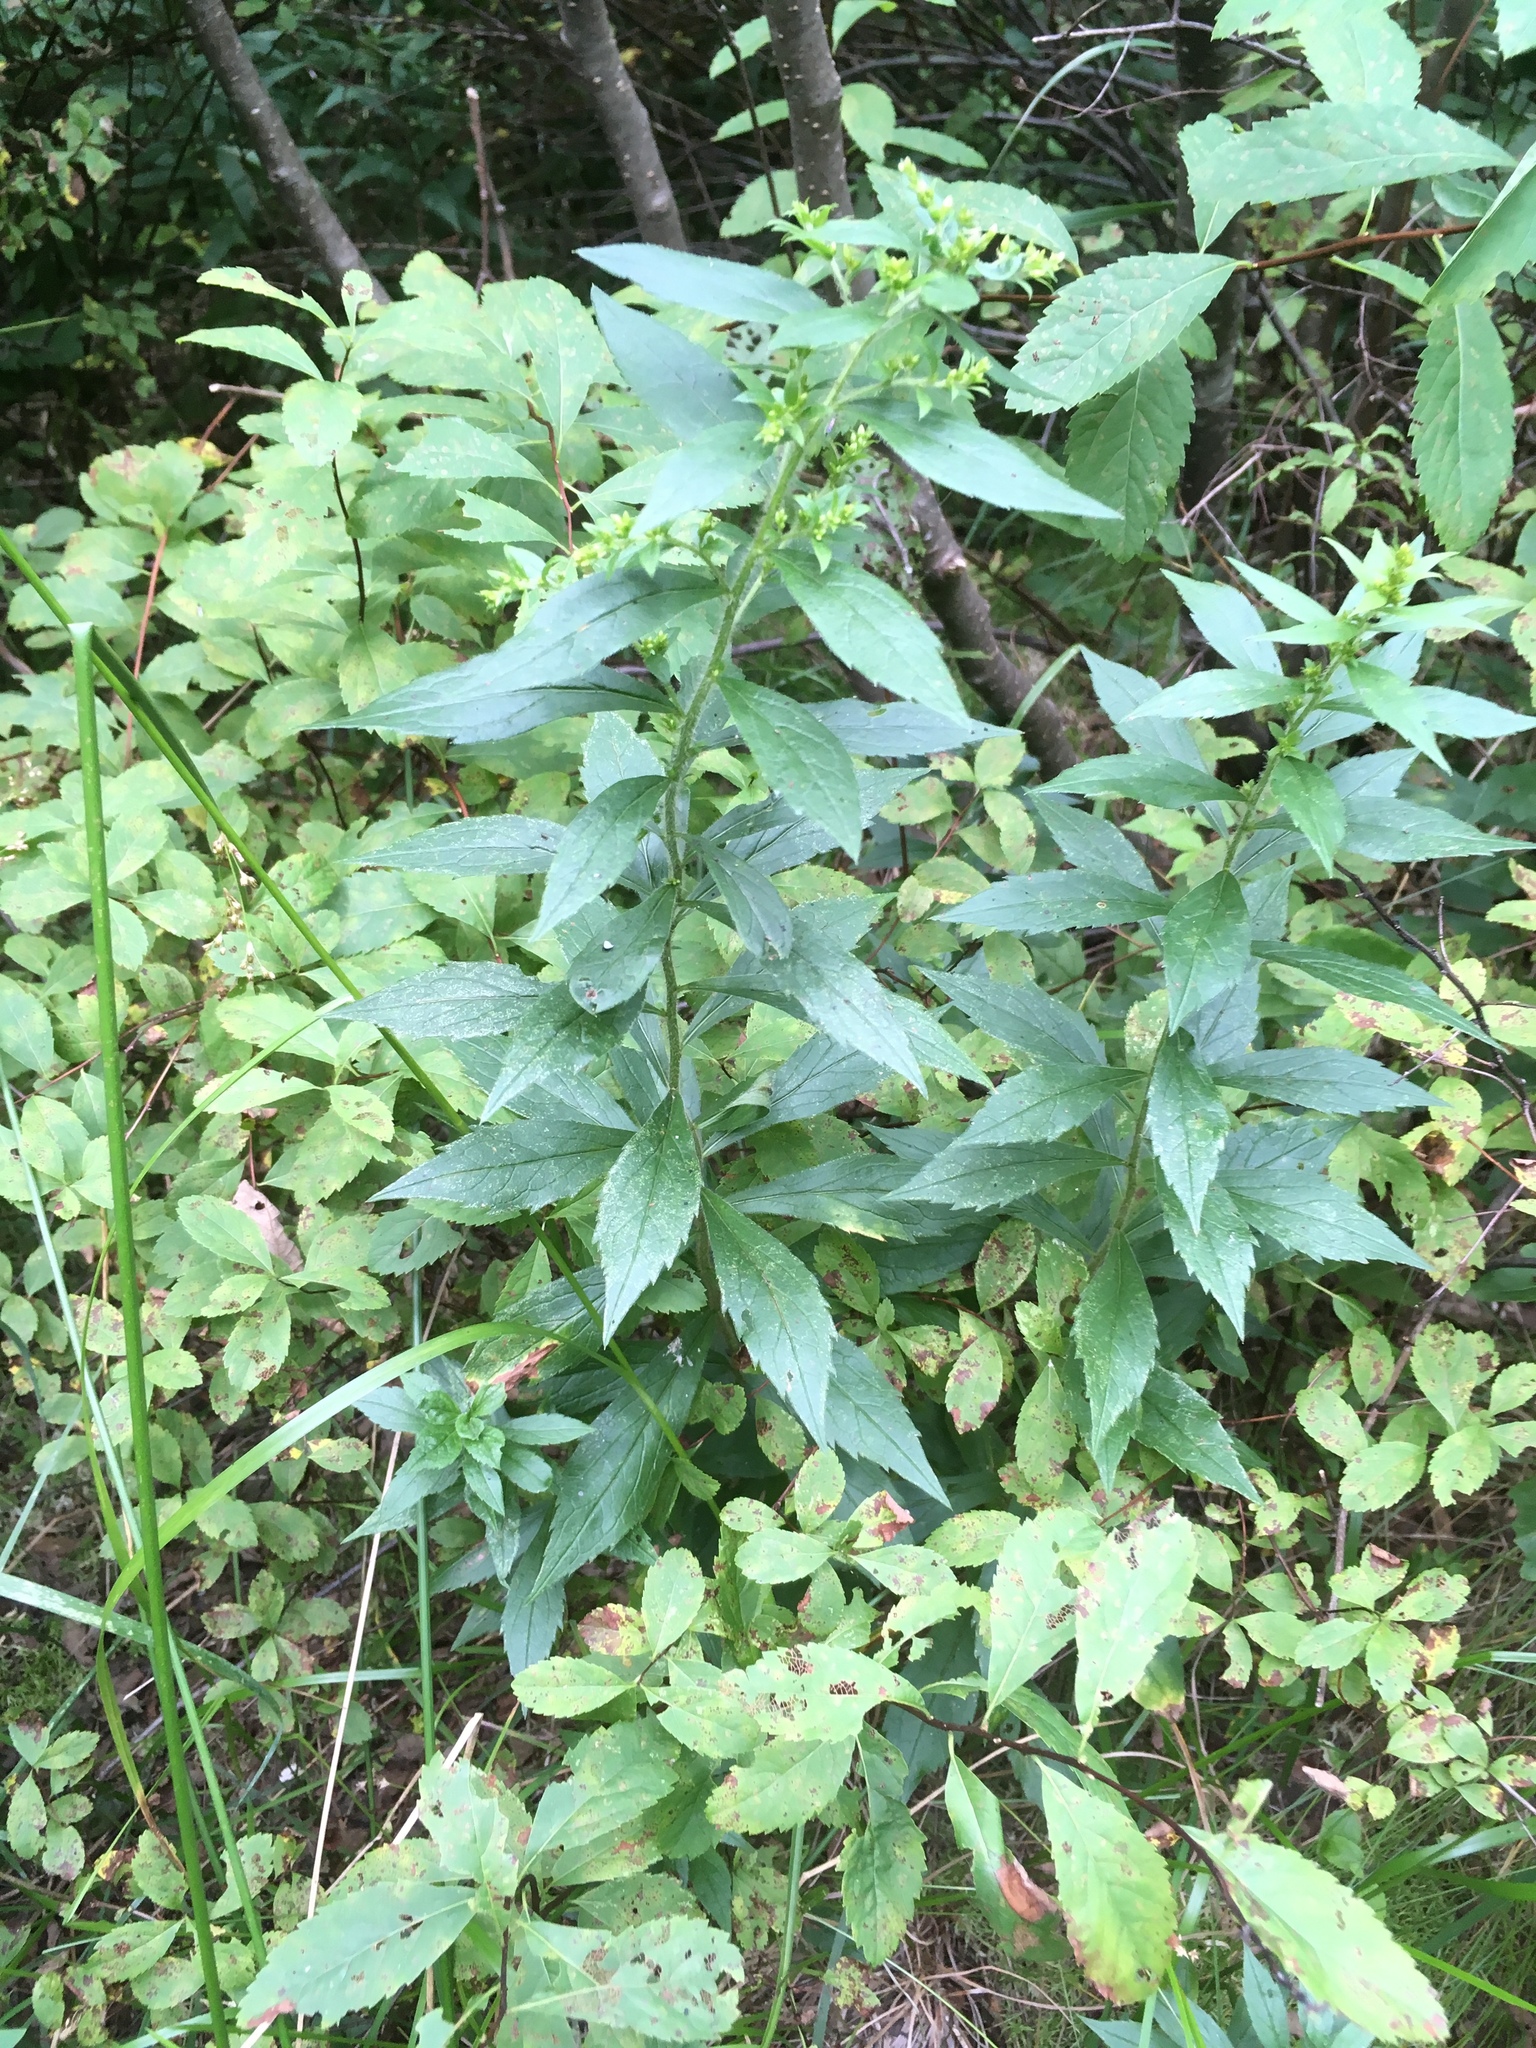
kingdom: Plantae
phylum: Tracheophyta
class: Magnoliopsida
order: Asterales
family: Asteraceae
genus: Solidago
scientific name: Solidago rugosa
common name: Rough-stemmed goldenrod
